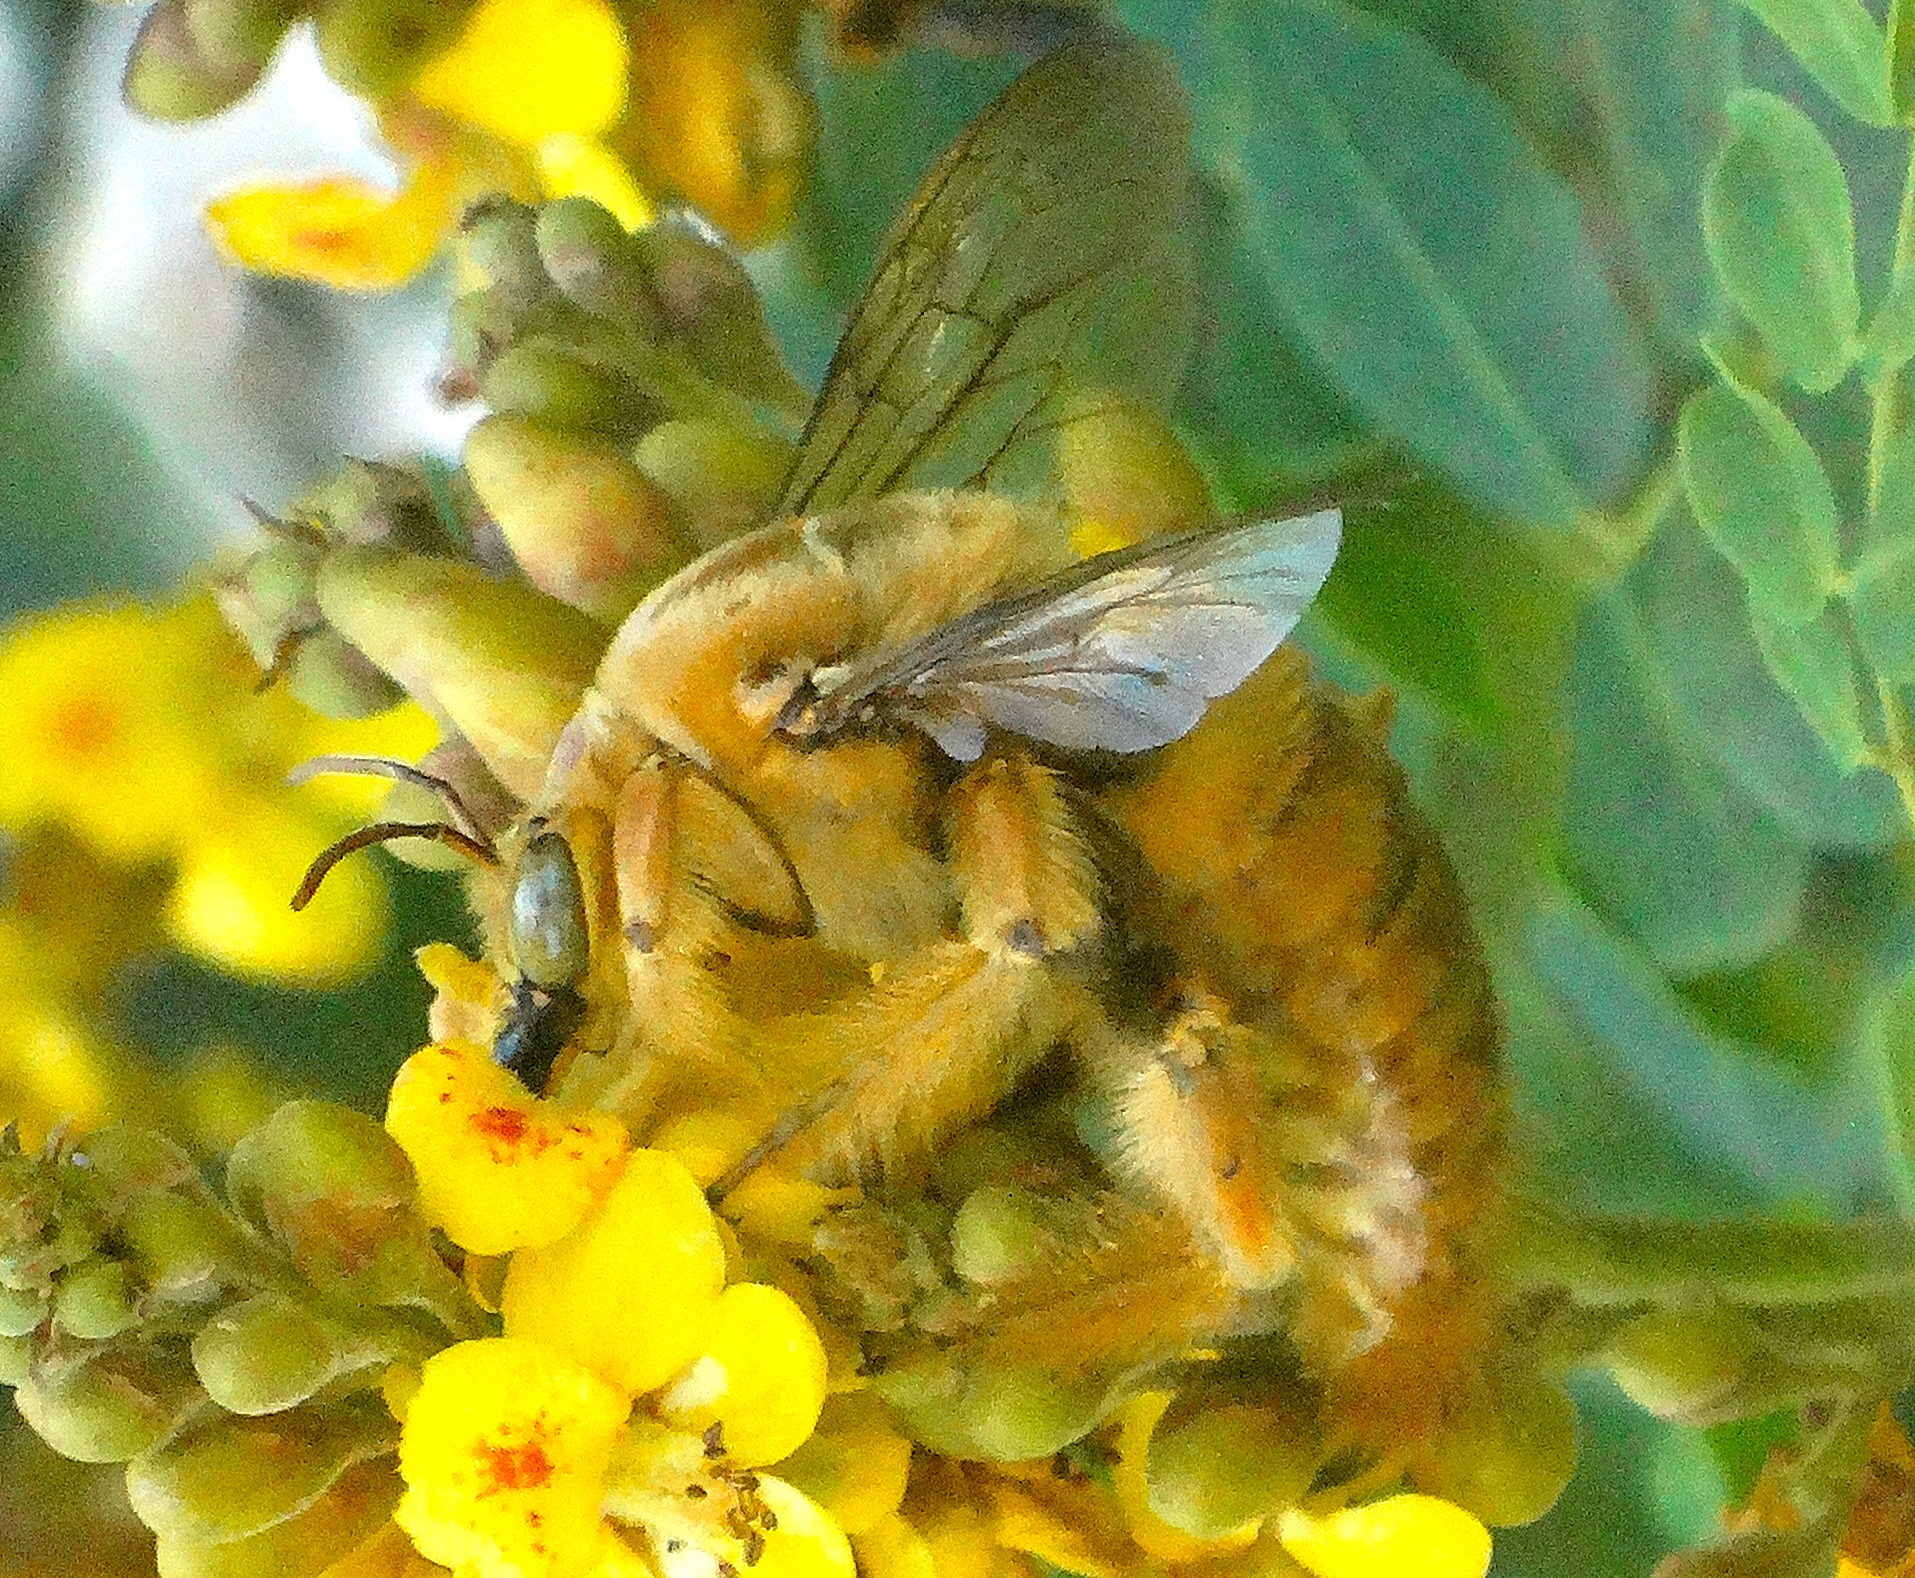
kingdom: Animalia
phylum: Arthropoda
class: Insecta
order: Hymenoptera
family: Apidae
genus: Xylocopa
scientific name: Xylocopa fimbriata
